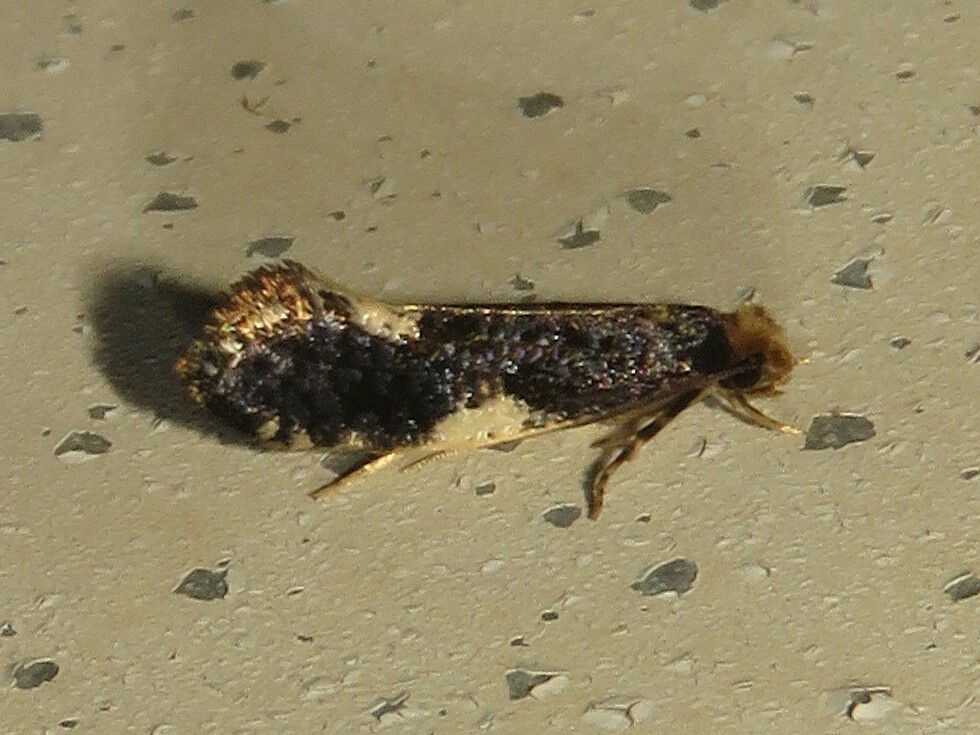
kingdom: Animalia
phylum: Arthropoda
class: Insecta
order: Lepidoptera
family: Tineidae
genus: Monopis
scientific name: Monopis spilotella
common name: Orange-headed monopis
